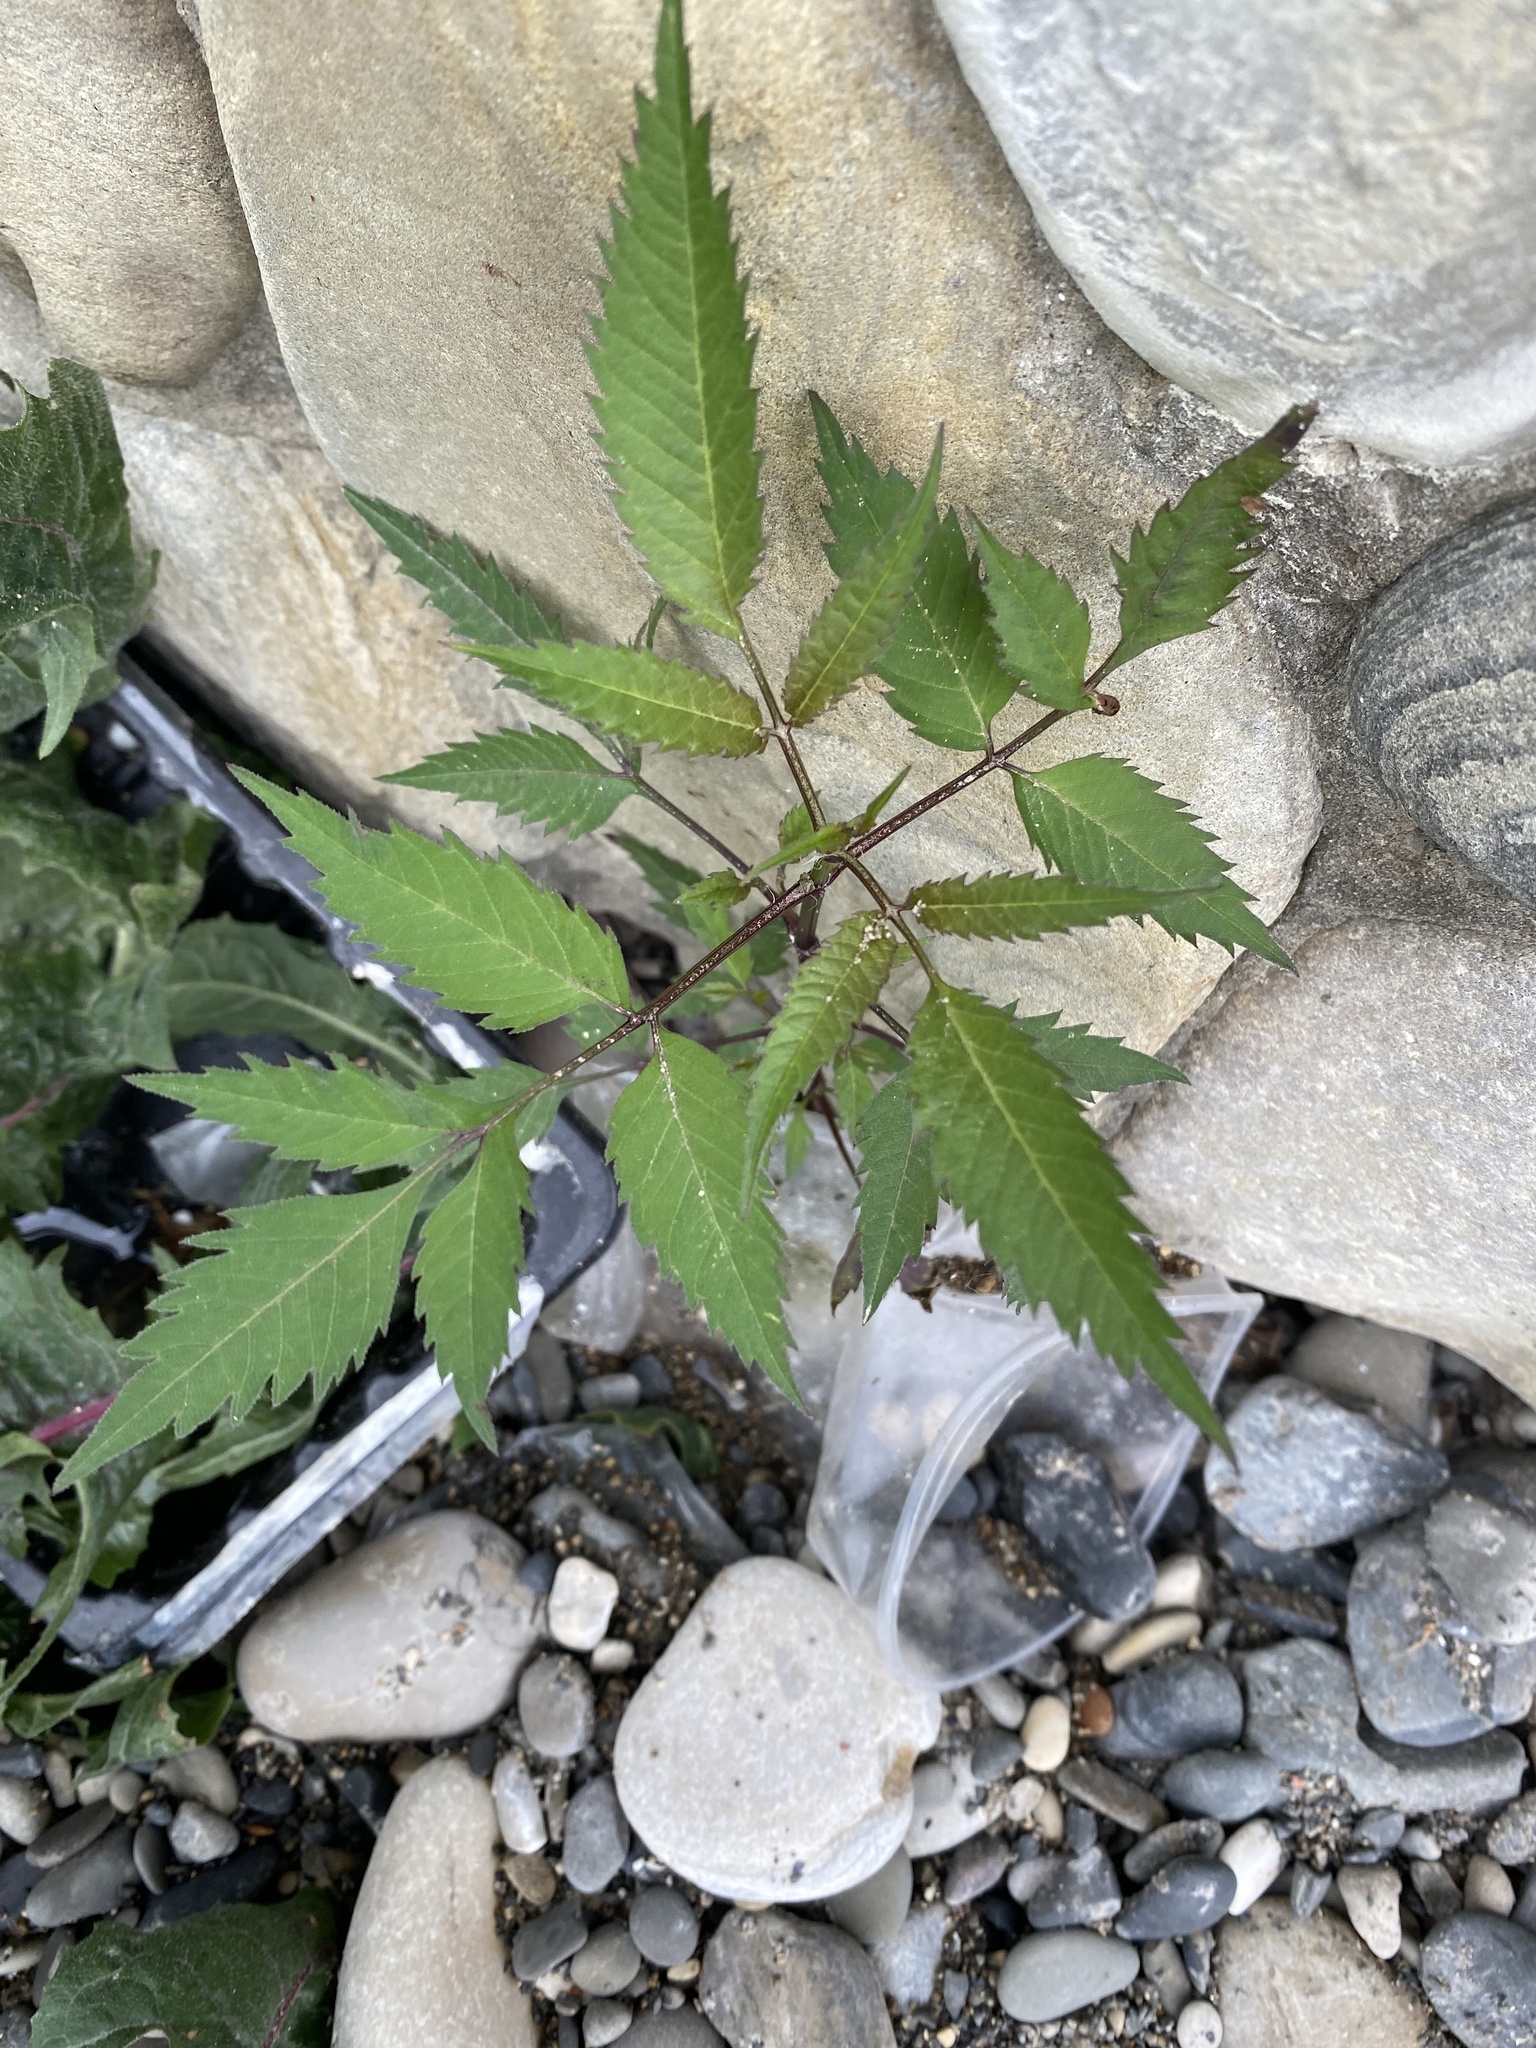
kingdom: Plantae
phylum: Tracheophyta
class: Magnoliopsida
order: Asterales
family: Asteraceae
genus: Bidens
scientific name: Bidens frondosa
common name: Beggarticks
